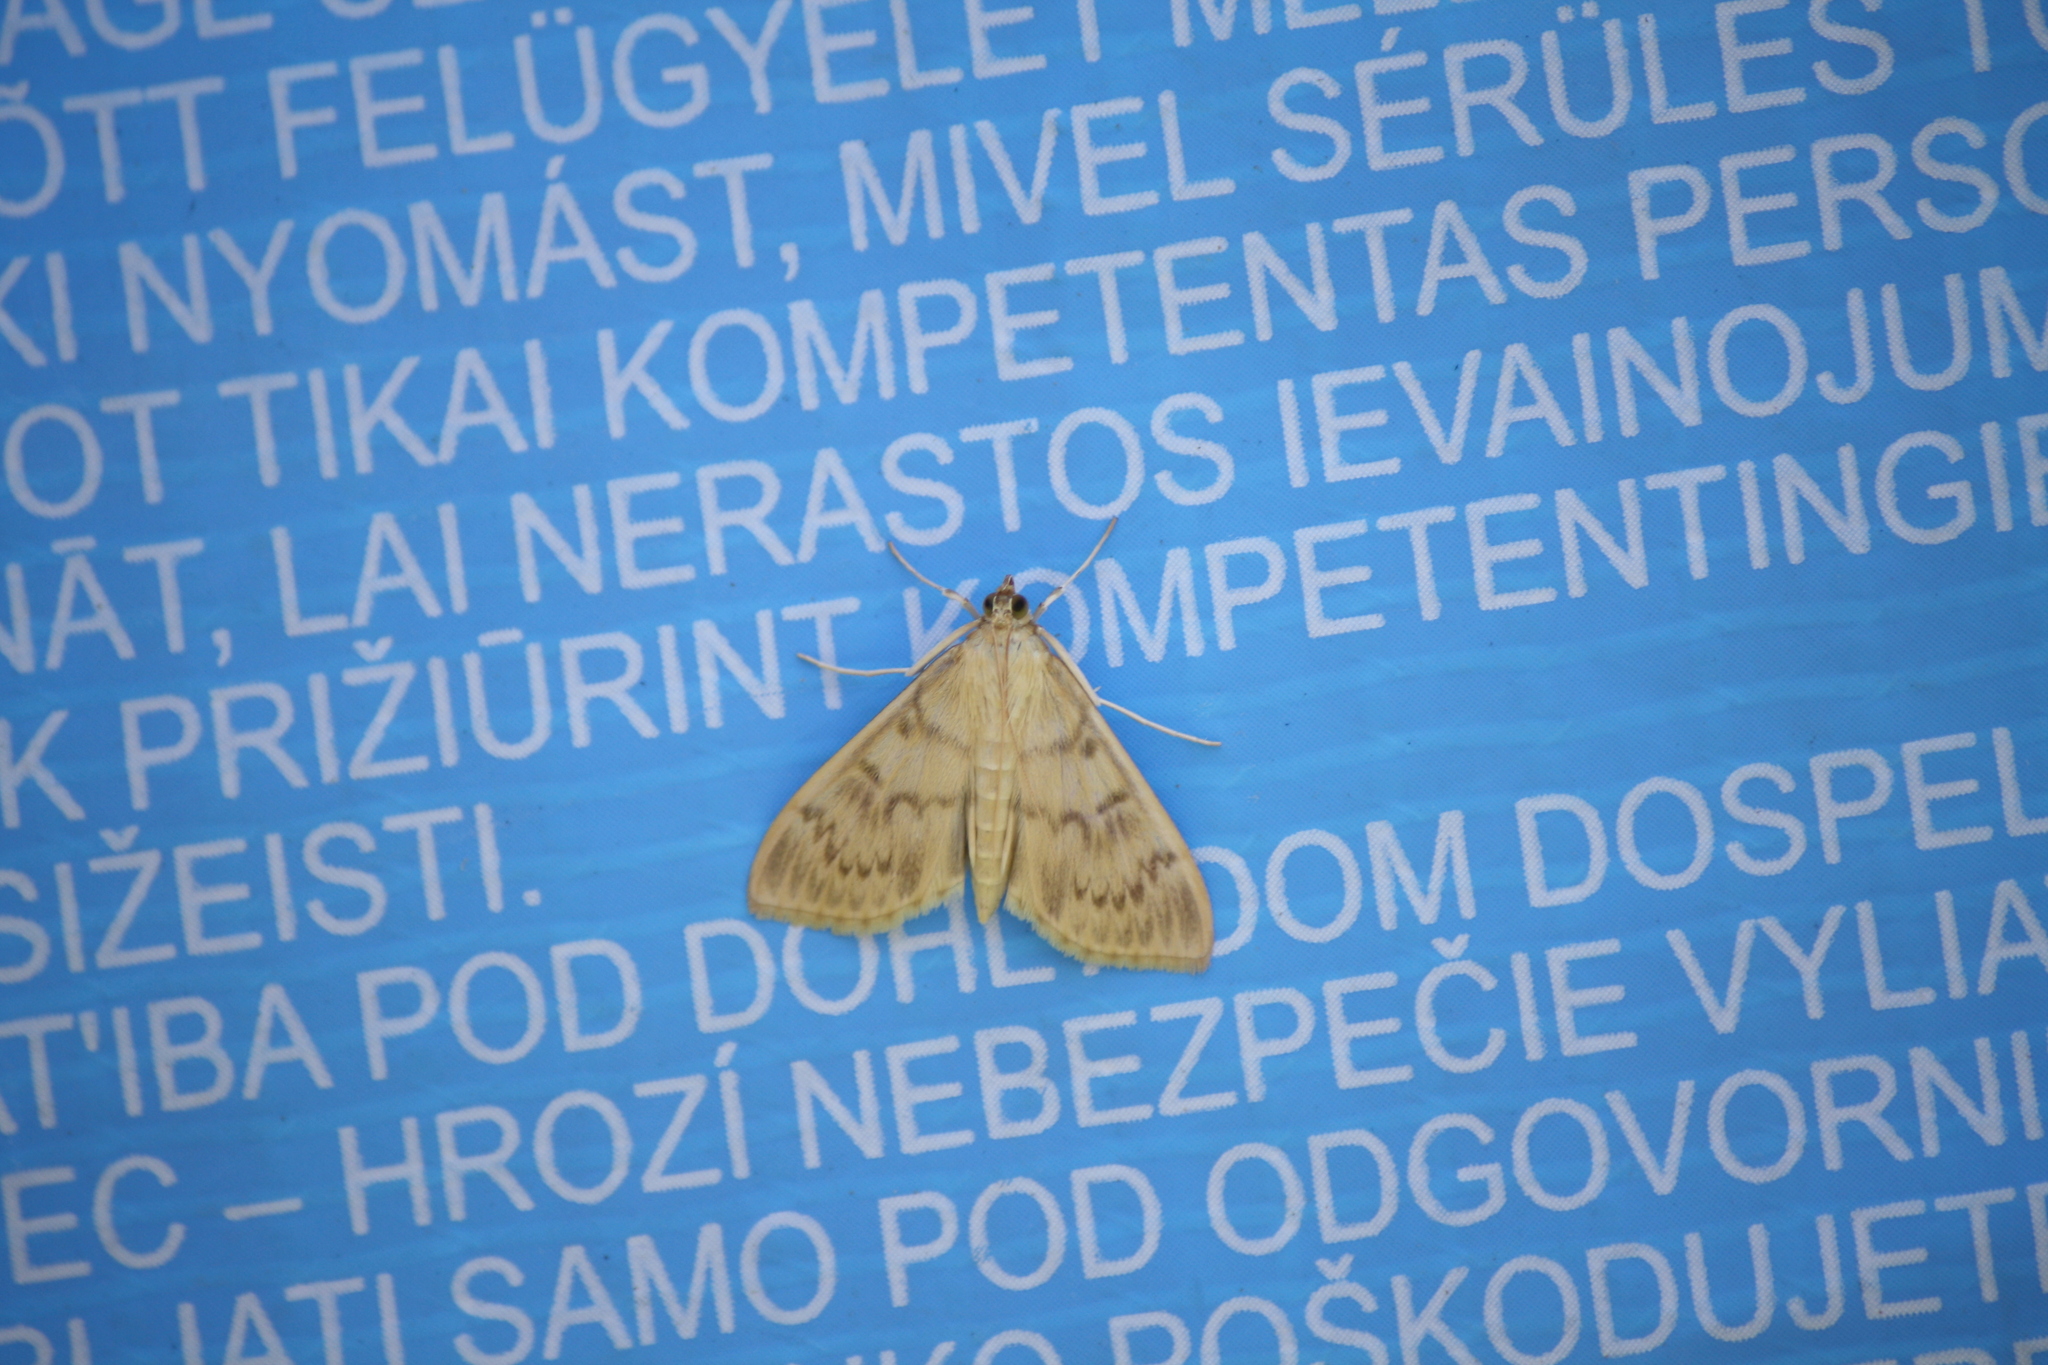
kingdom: Animalia
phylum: Arthropoda
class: Insecta
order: Lepidoptera
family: Crambidae
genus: Patania
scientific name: Patania ruralis
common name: Mother of pearl
